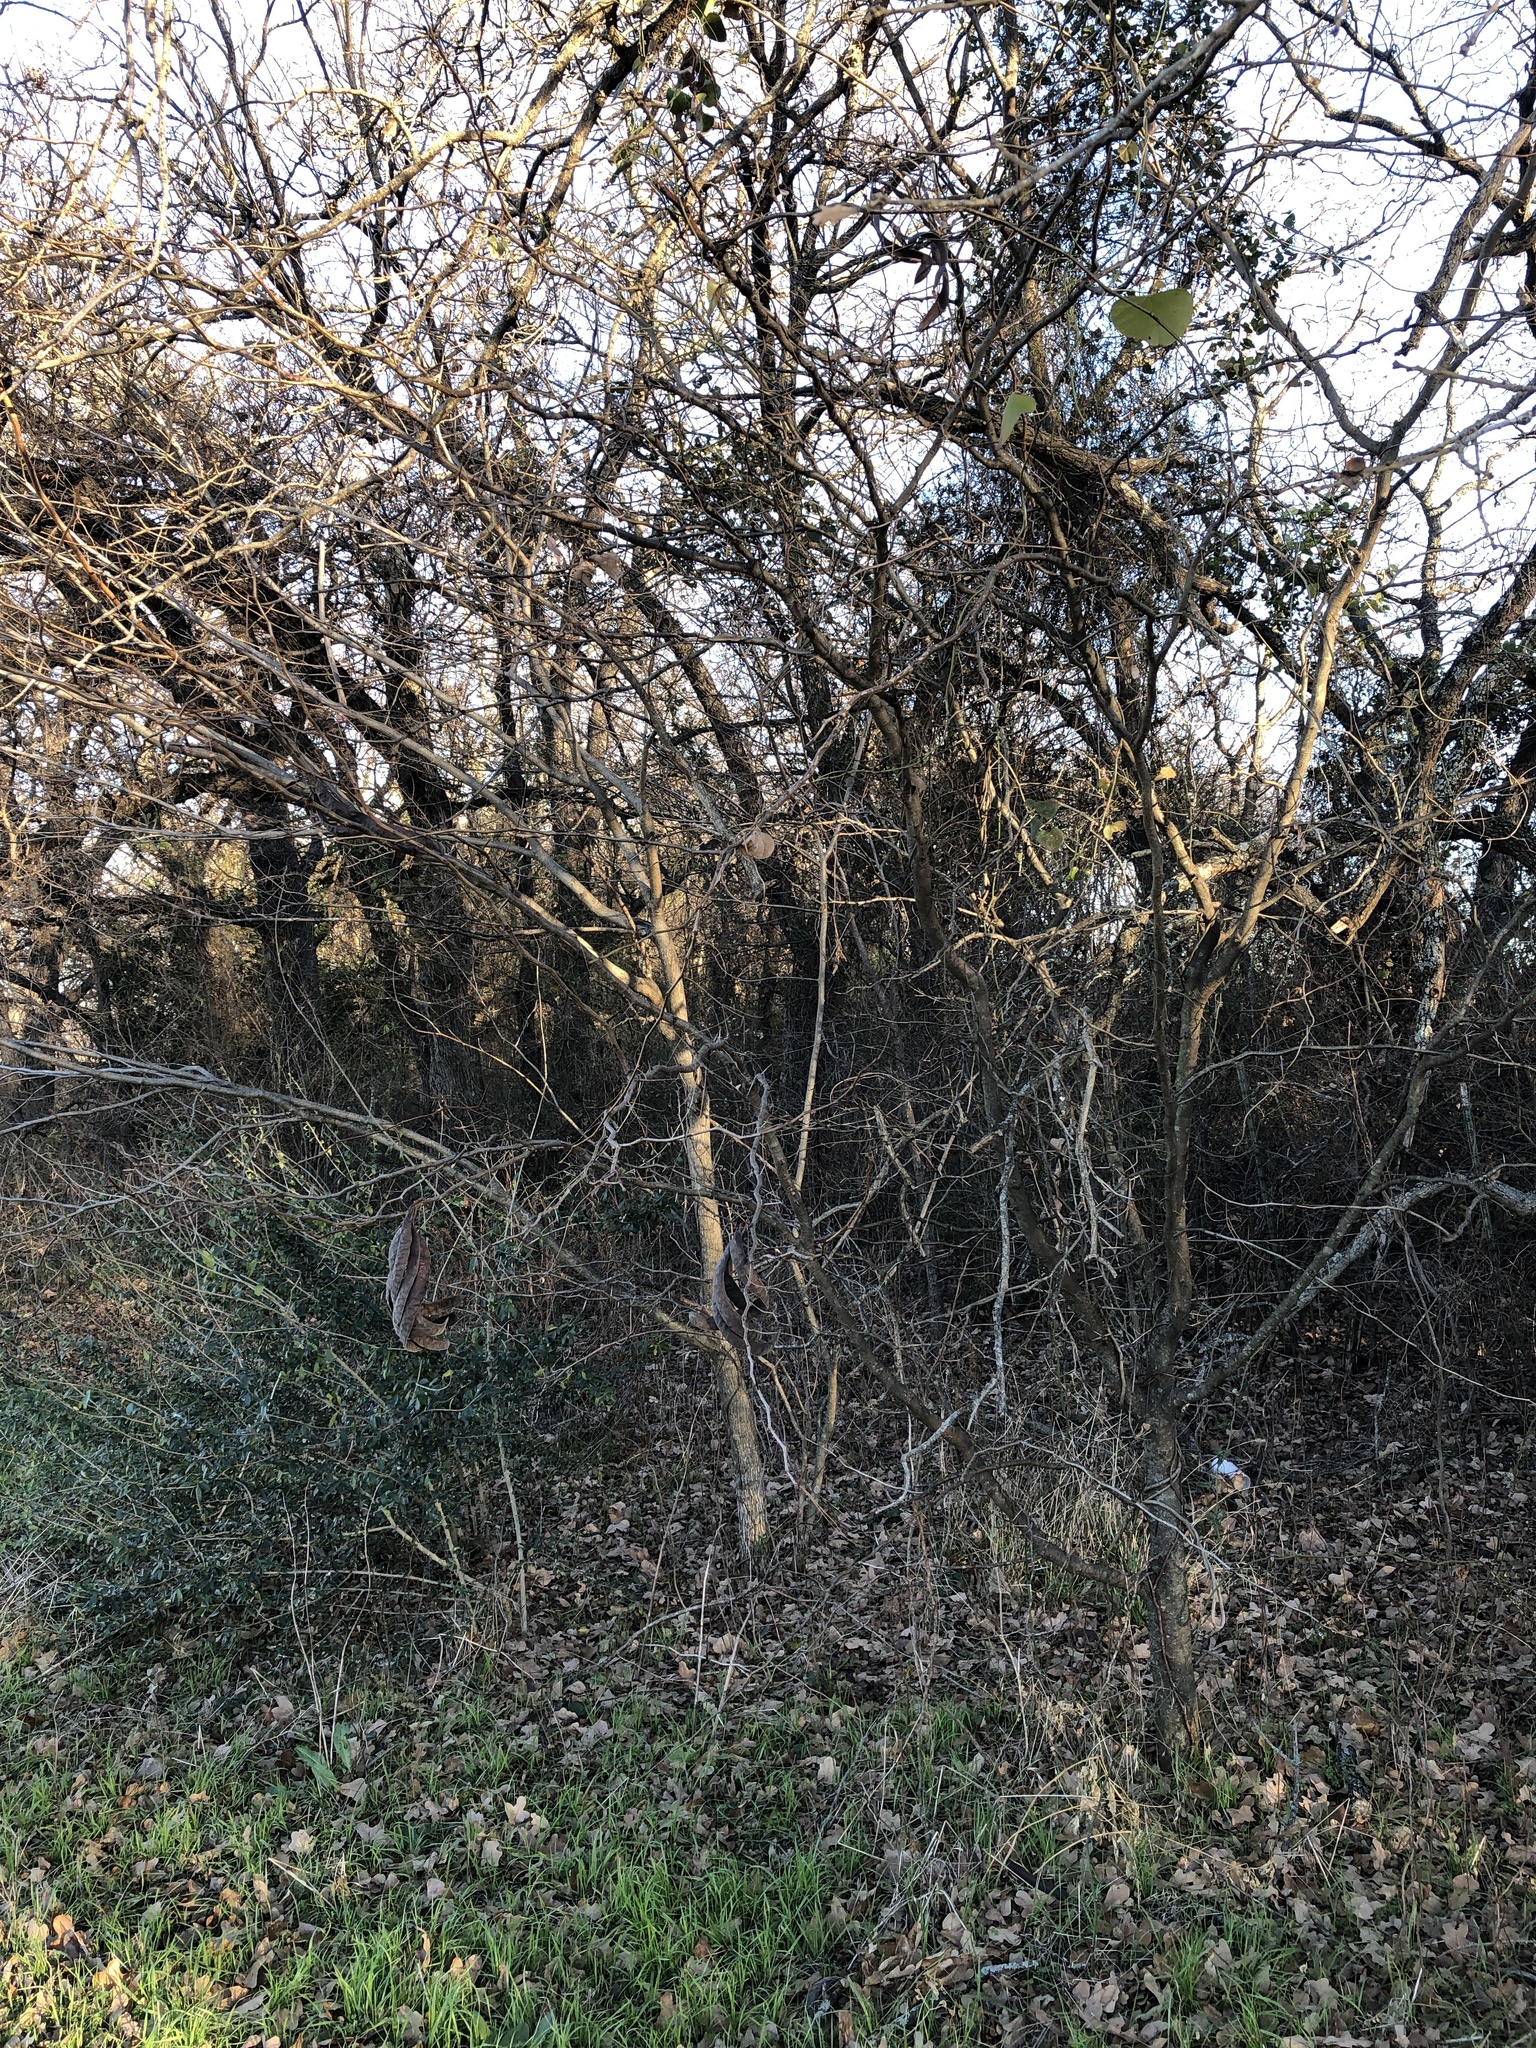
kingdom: Plantae
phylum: Tracheophyta
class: Magnoliopsida
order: Fabales
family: Fabaceae
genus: Gleditsia
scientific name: Gleditsia triacanthos
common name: Common honeylocust
